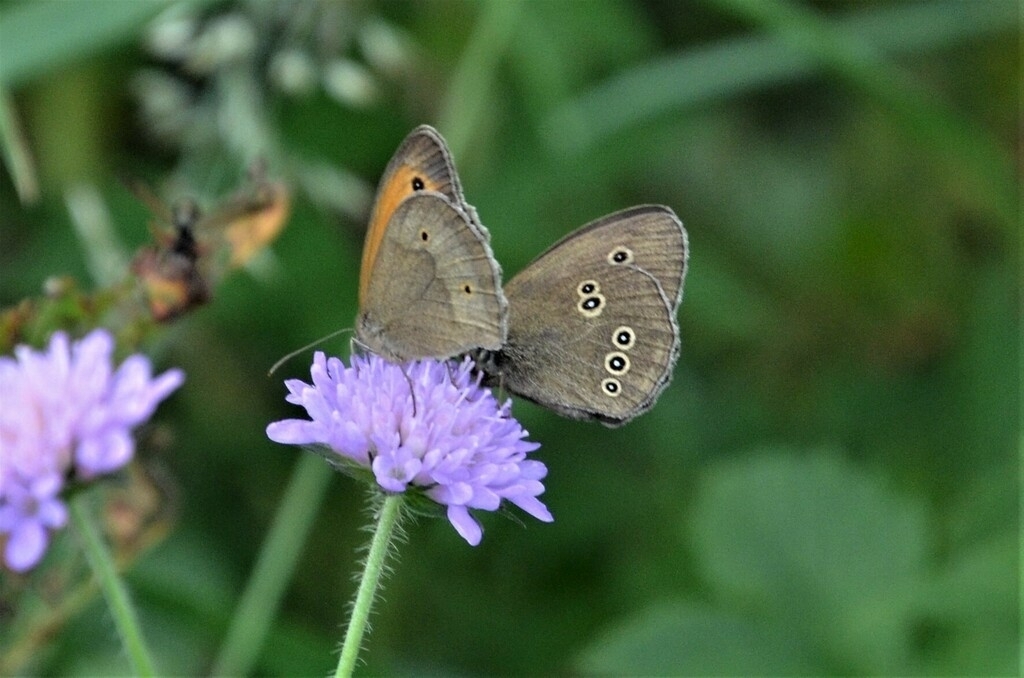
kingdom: Animalia
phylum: Arthropoda
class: Insecta
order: Lepidoptera
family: Nymphalidae
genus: Aphantopus
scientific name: Aphantopus hyperantus
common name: Ringlet
